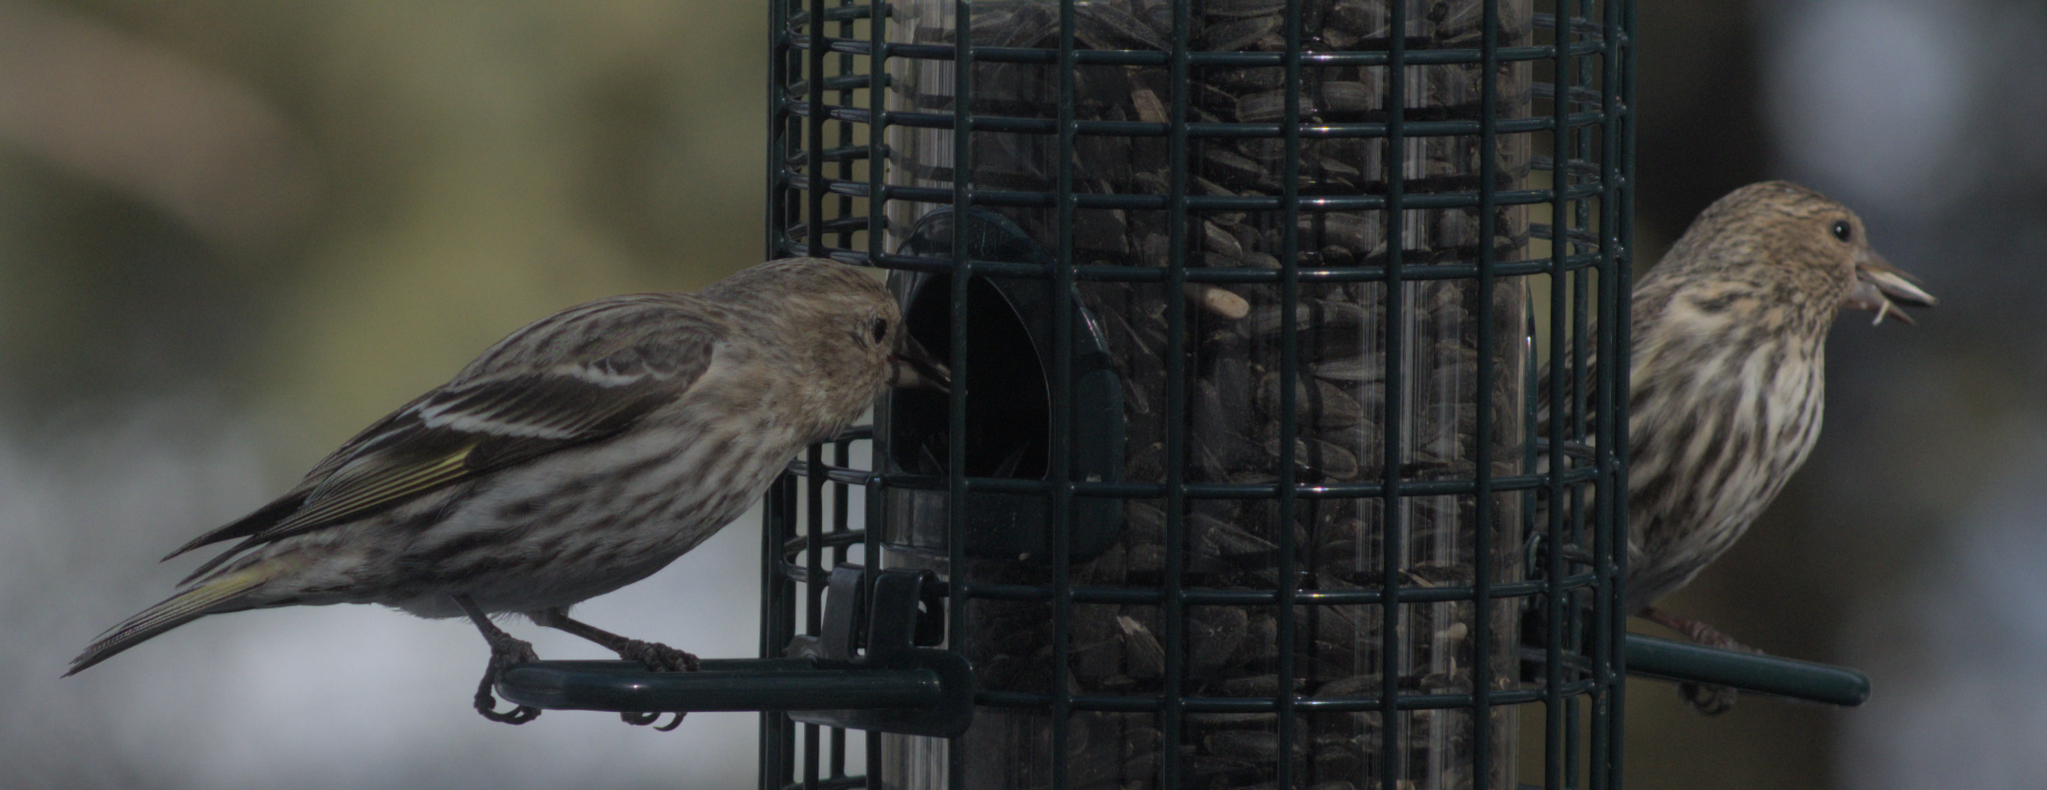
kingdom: Animalia
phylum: Chordata
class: Aves
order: Passeriformes
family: Fringillidae
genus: Spinus
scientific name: Spinus pinus
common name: Pine siskin
